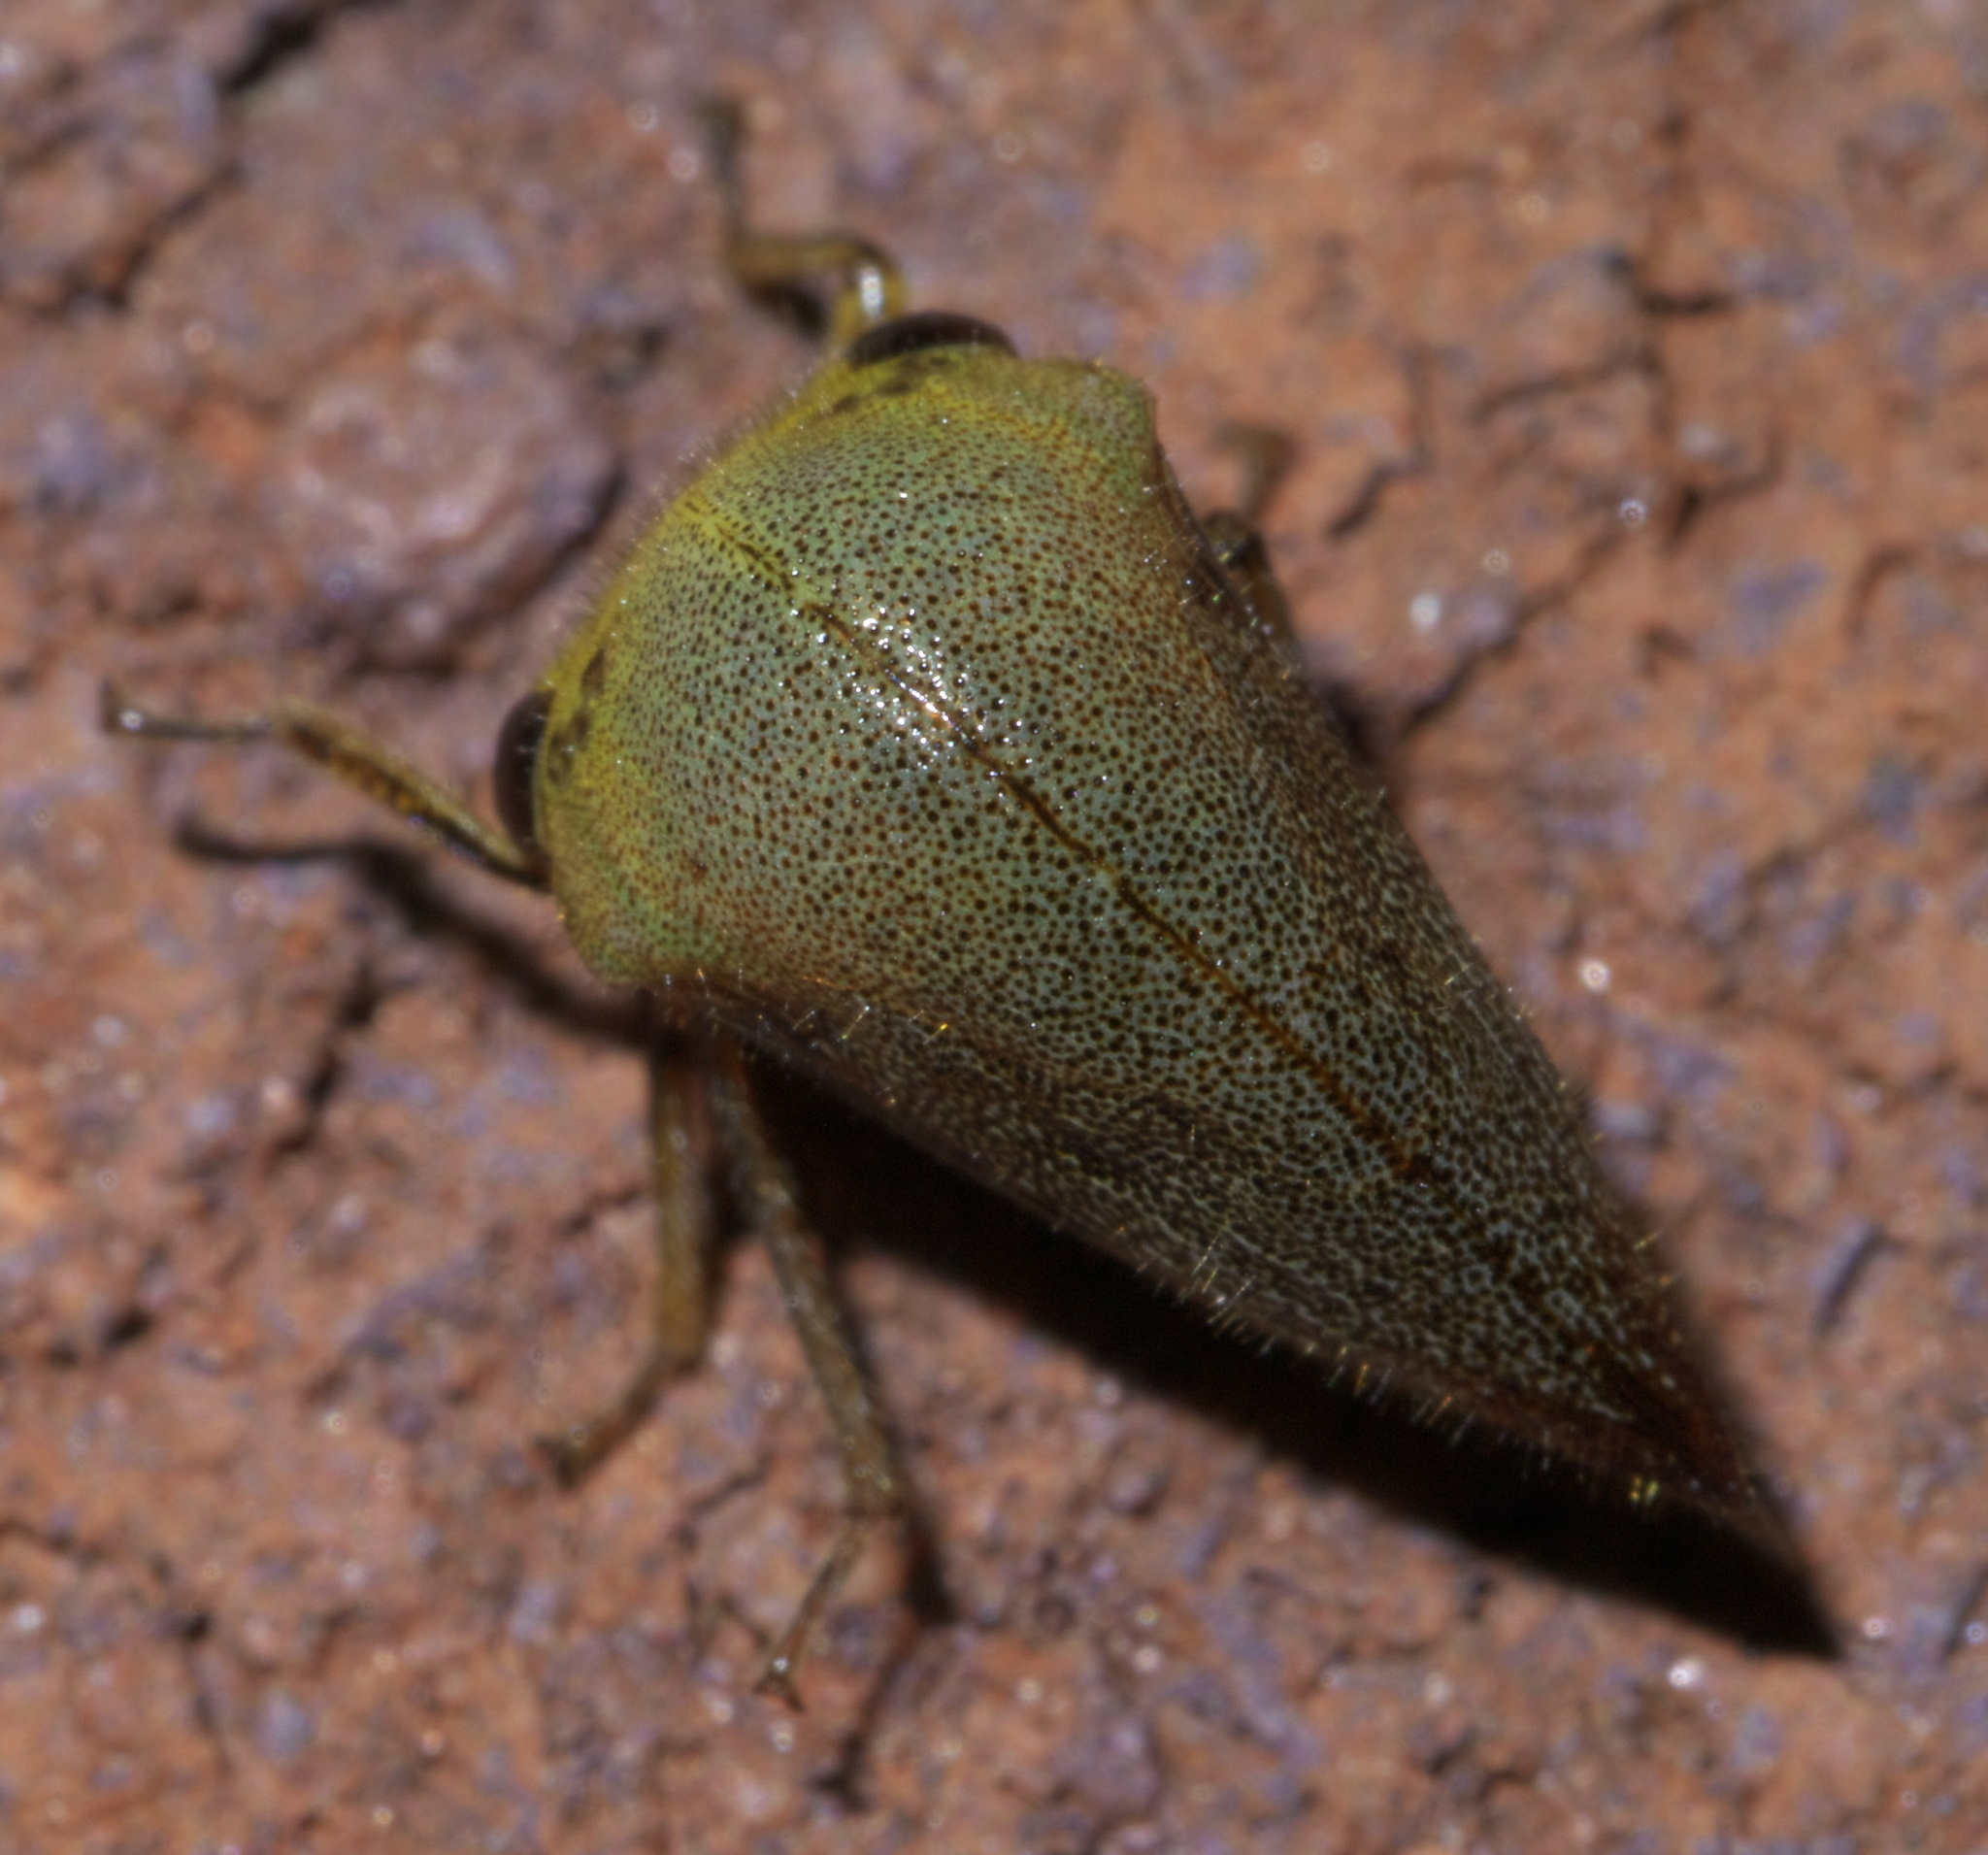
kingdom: Animalia
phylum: Arthropoda
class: Insecta
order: Hemiptera
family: Membracidae
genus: Carynota
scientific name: Carynota mera
